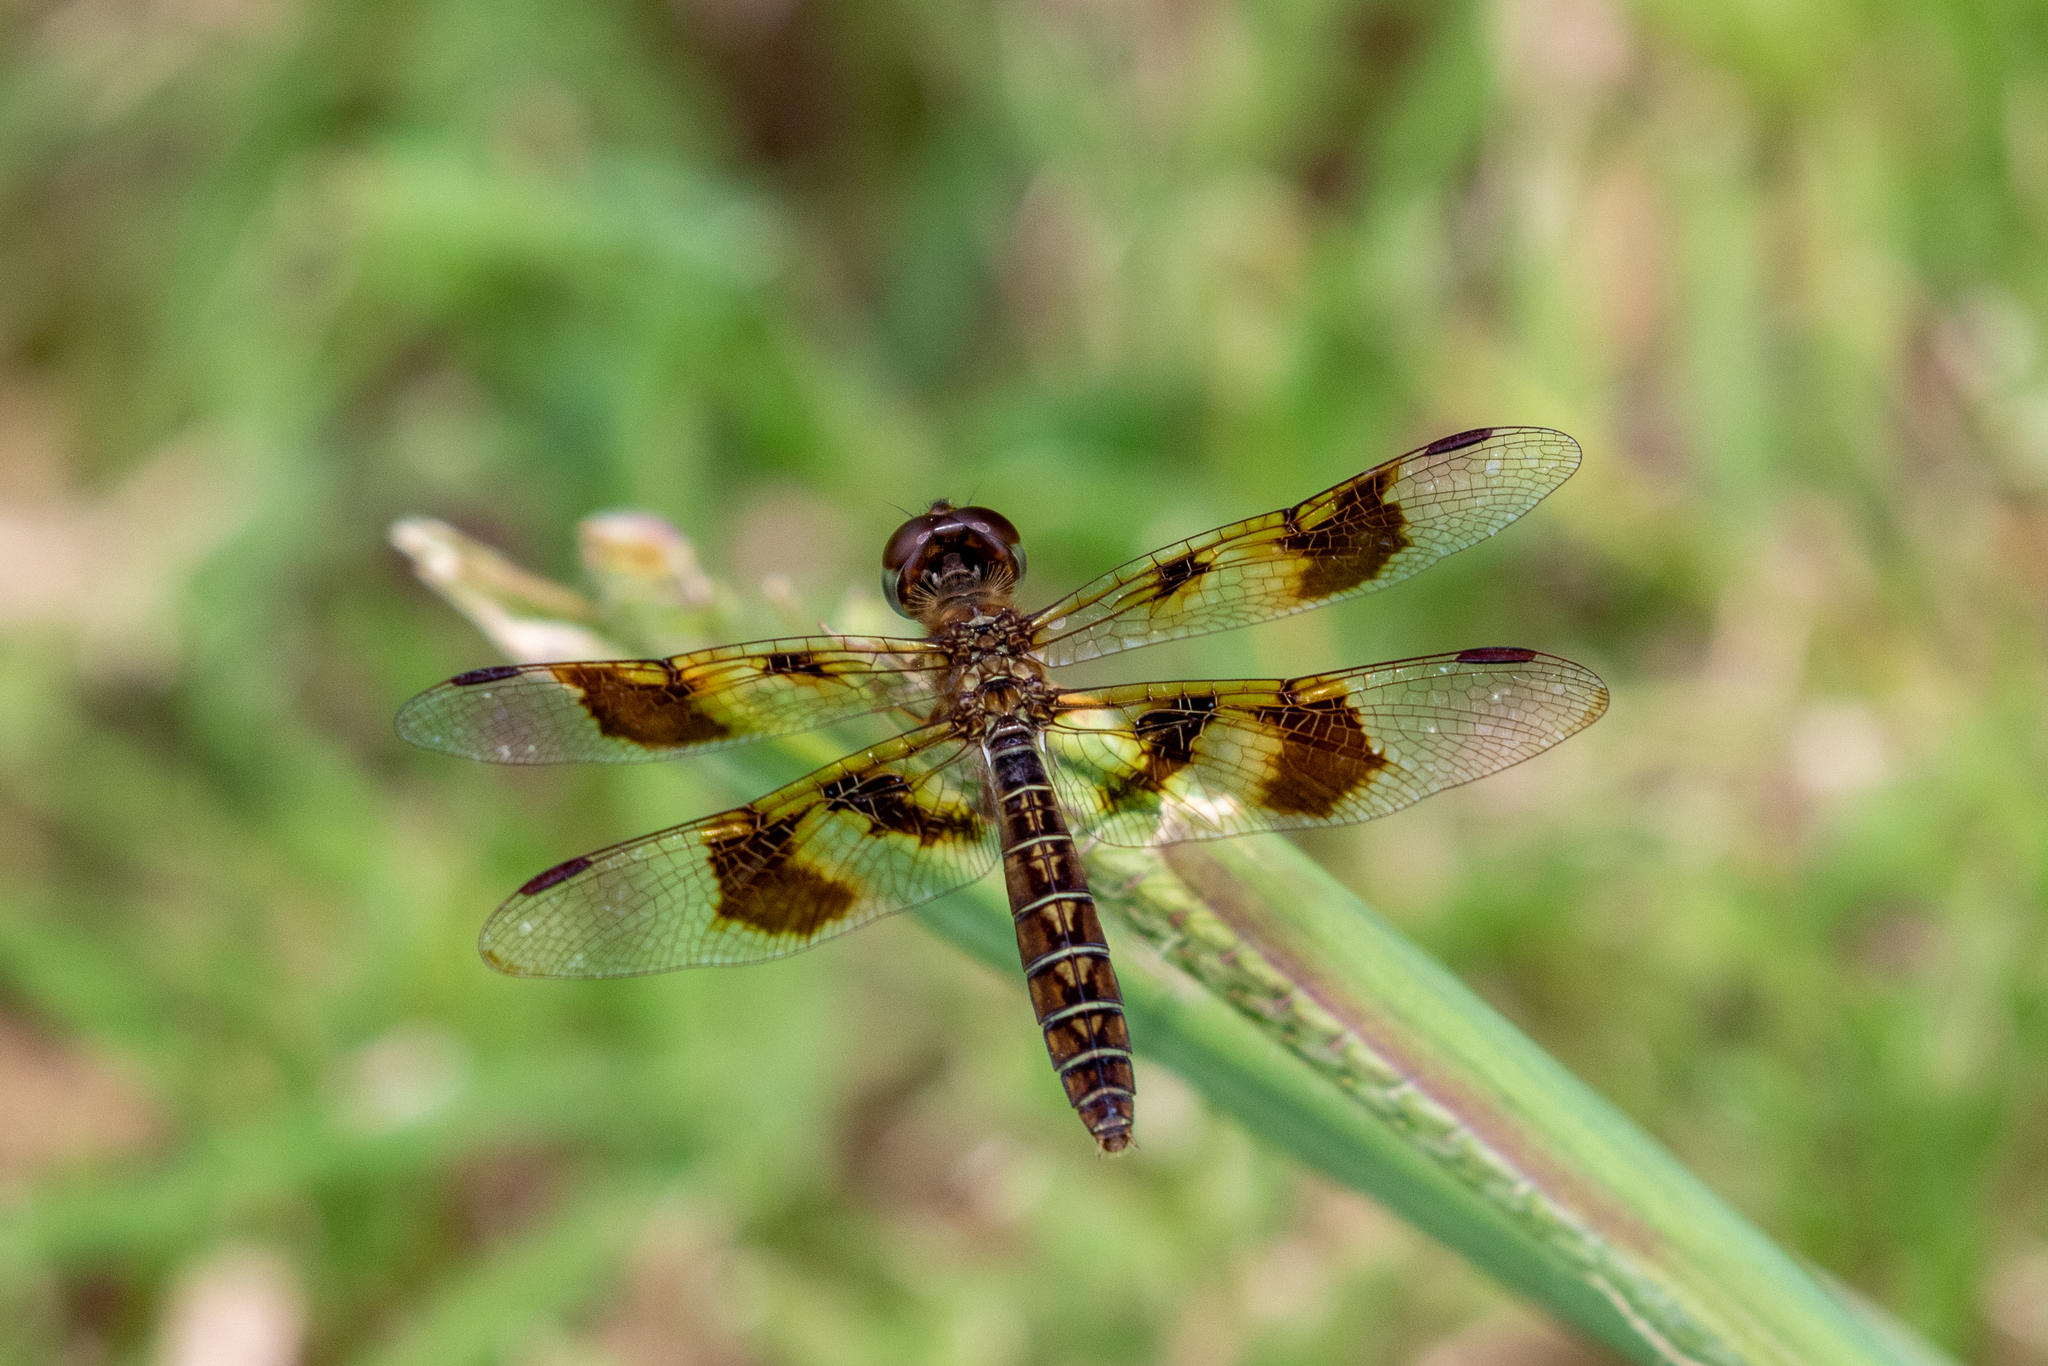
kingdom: Animalia
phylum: Arthropoda
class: Insecta
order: Odonata
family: Libellulidae
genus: Perithemis
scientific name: Perithemis tenera
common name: Eastern amberwing
